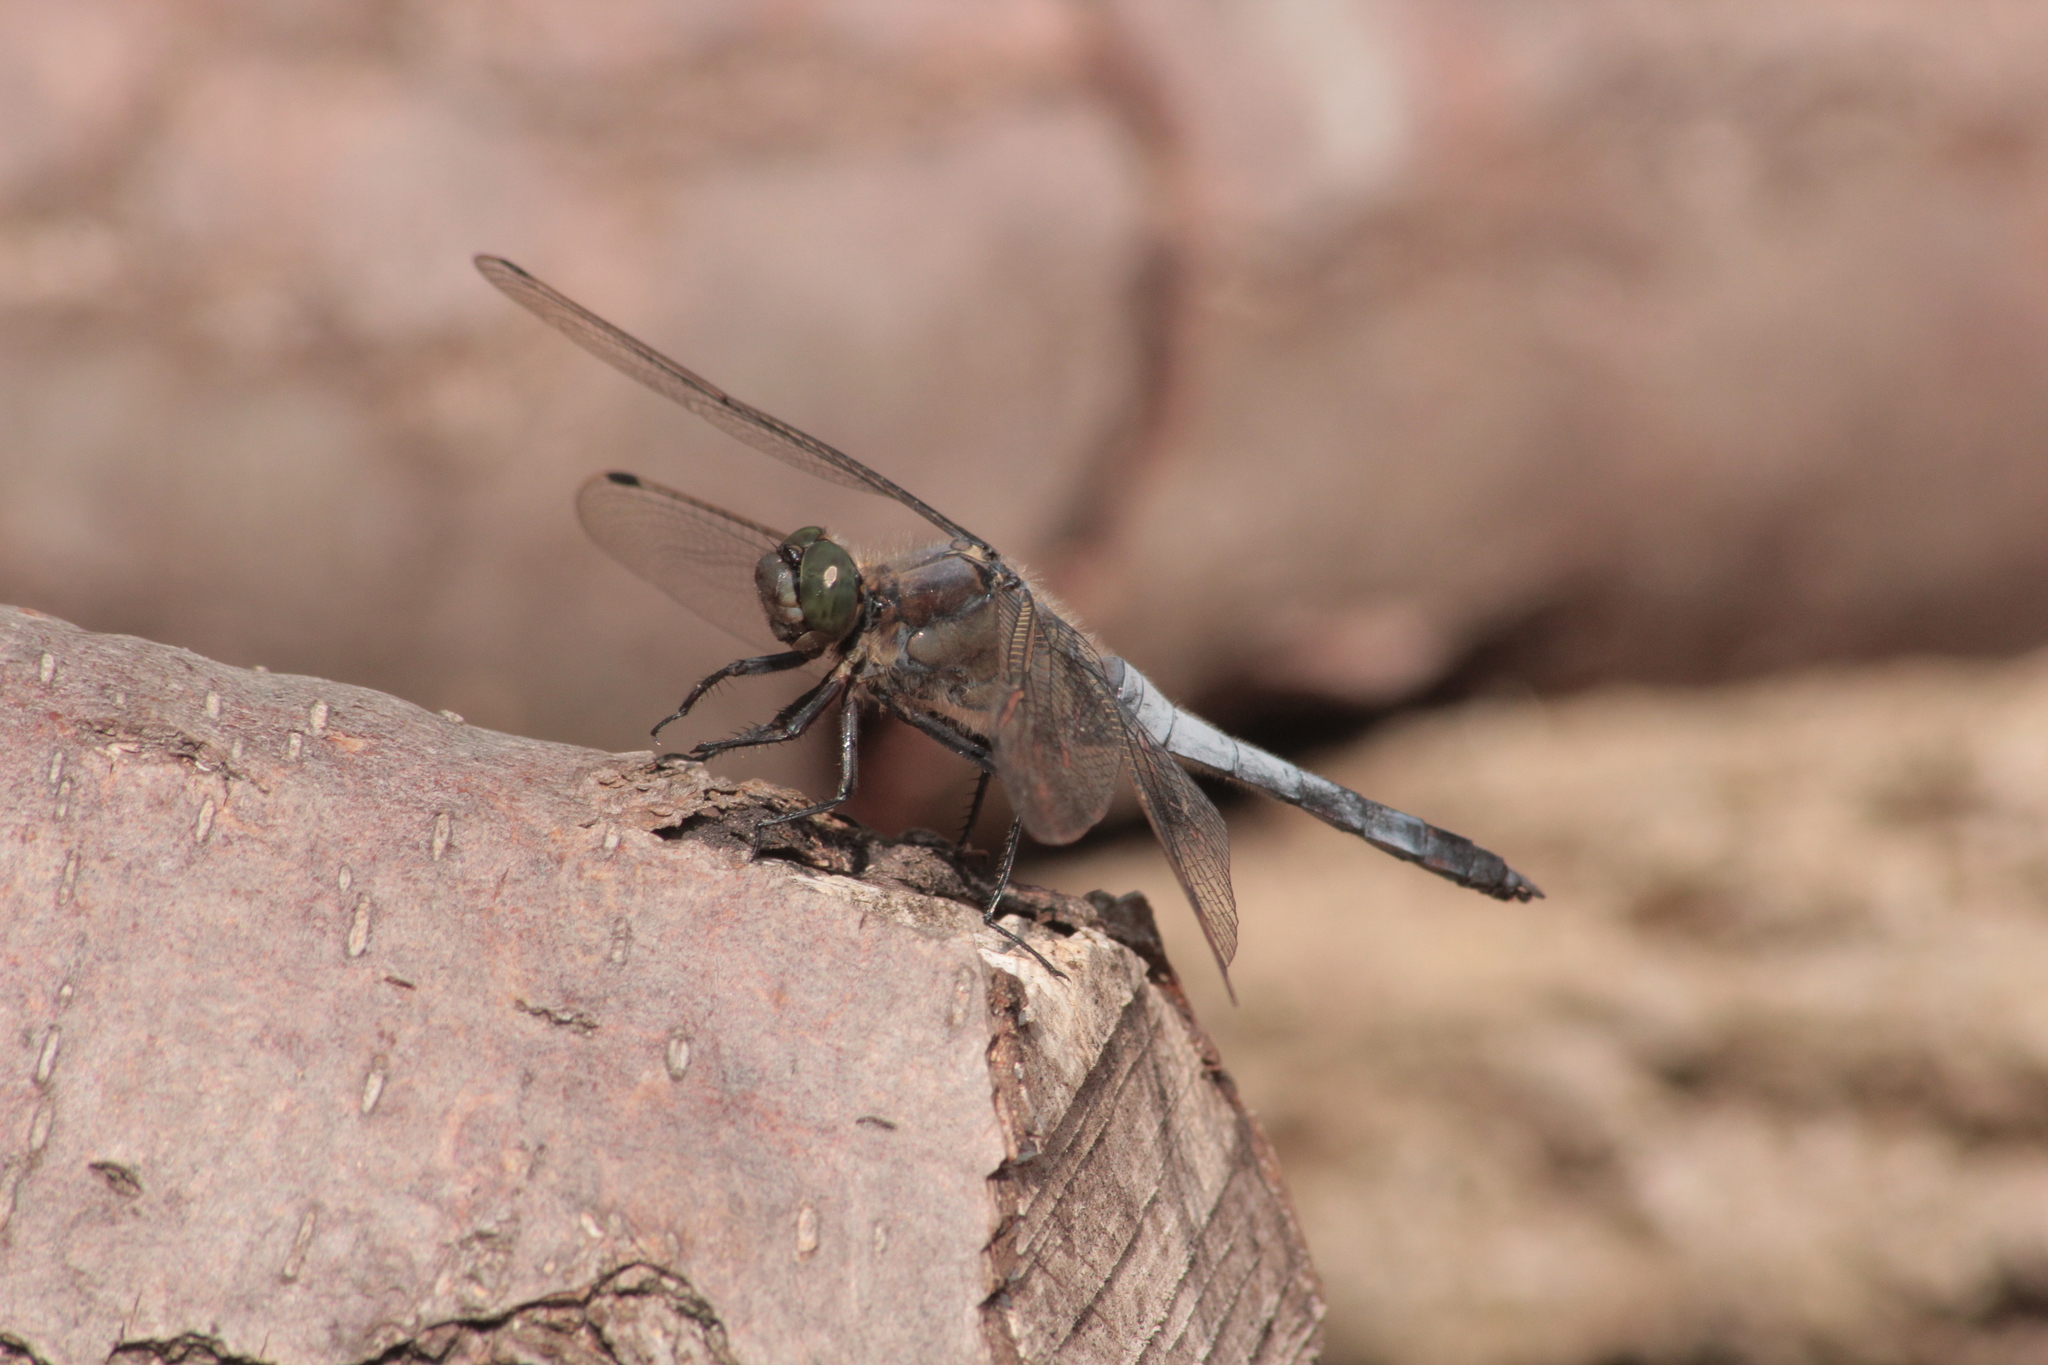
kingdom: Animalia
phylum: Arthropoda
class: Insecta
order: Odonata
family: Libellulidae
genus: Orthetrum
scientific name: Orthetrum cancellatum
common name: Black-tailed skimmer
